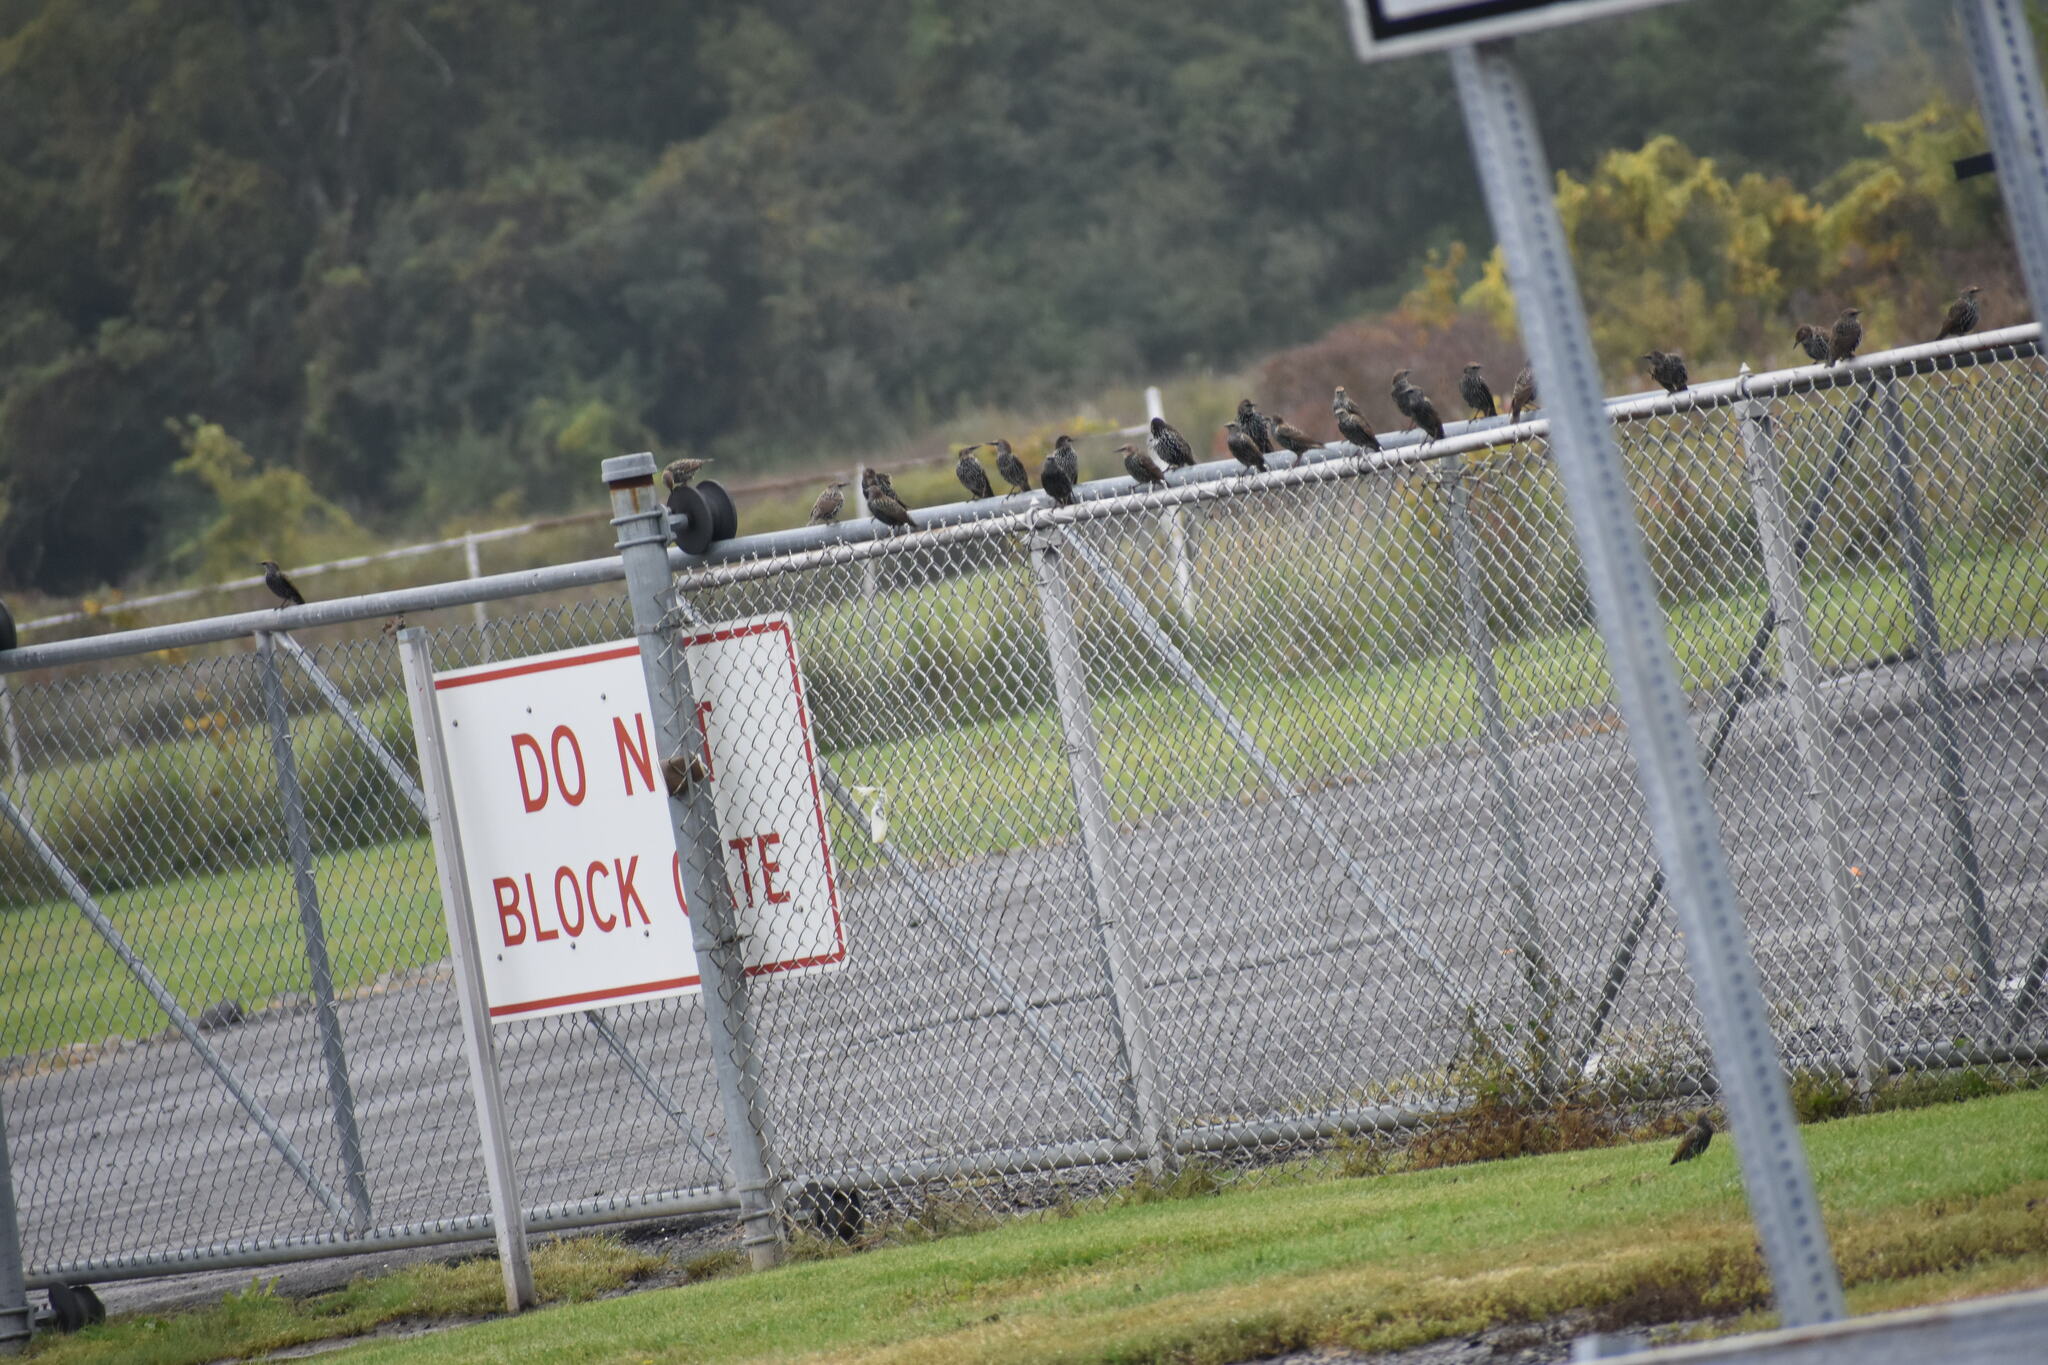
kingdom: Animalia
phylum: Chordata
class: Aves
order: Passeriformes
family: Sturnidae
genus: Sturnus
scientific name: Sturnus vulgaris
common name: Common starling
